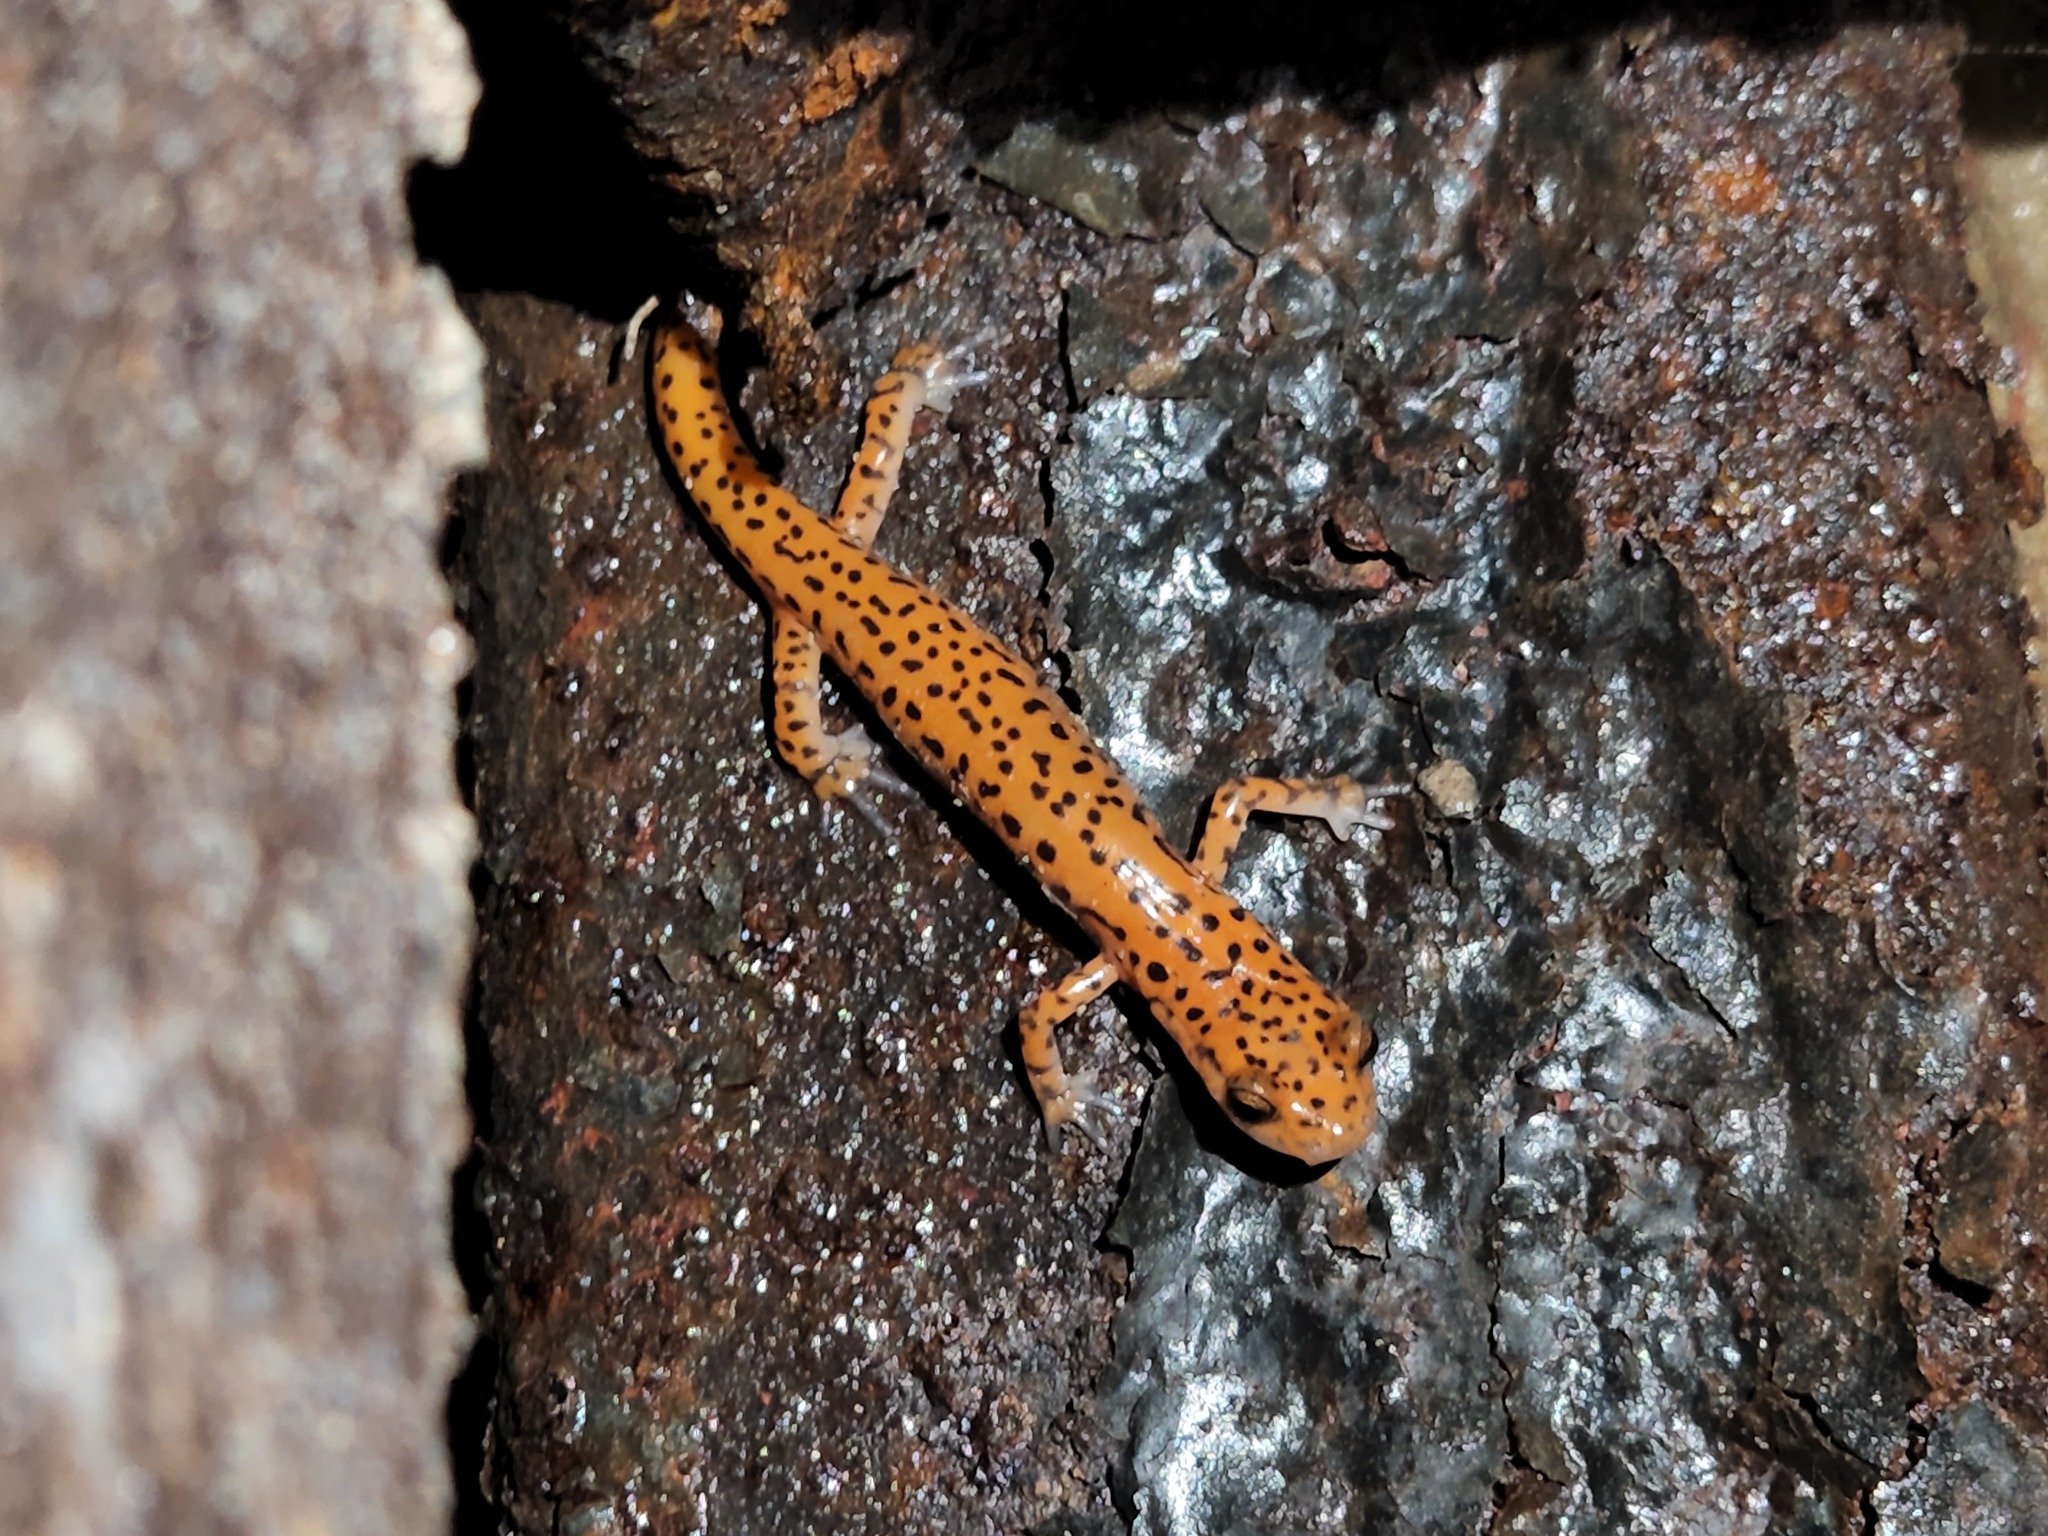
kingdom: Animalia
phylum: Chordata
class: Amphibia
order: Caudata
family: Plethodontidae
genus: Eurycea
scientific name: Eurycea lucifuga
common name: Cave salamander
